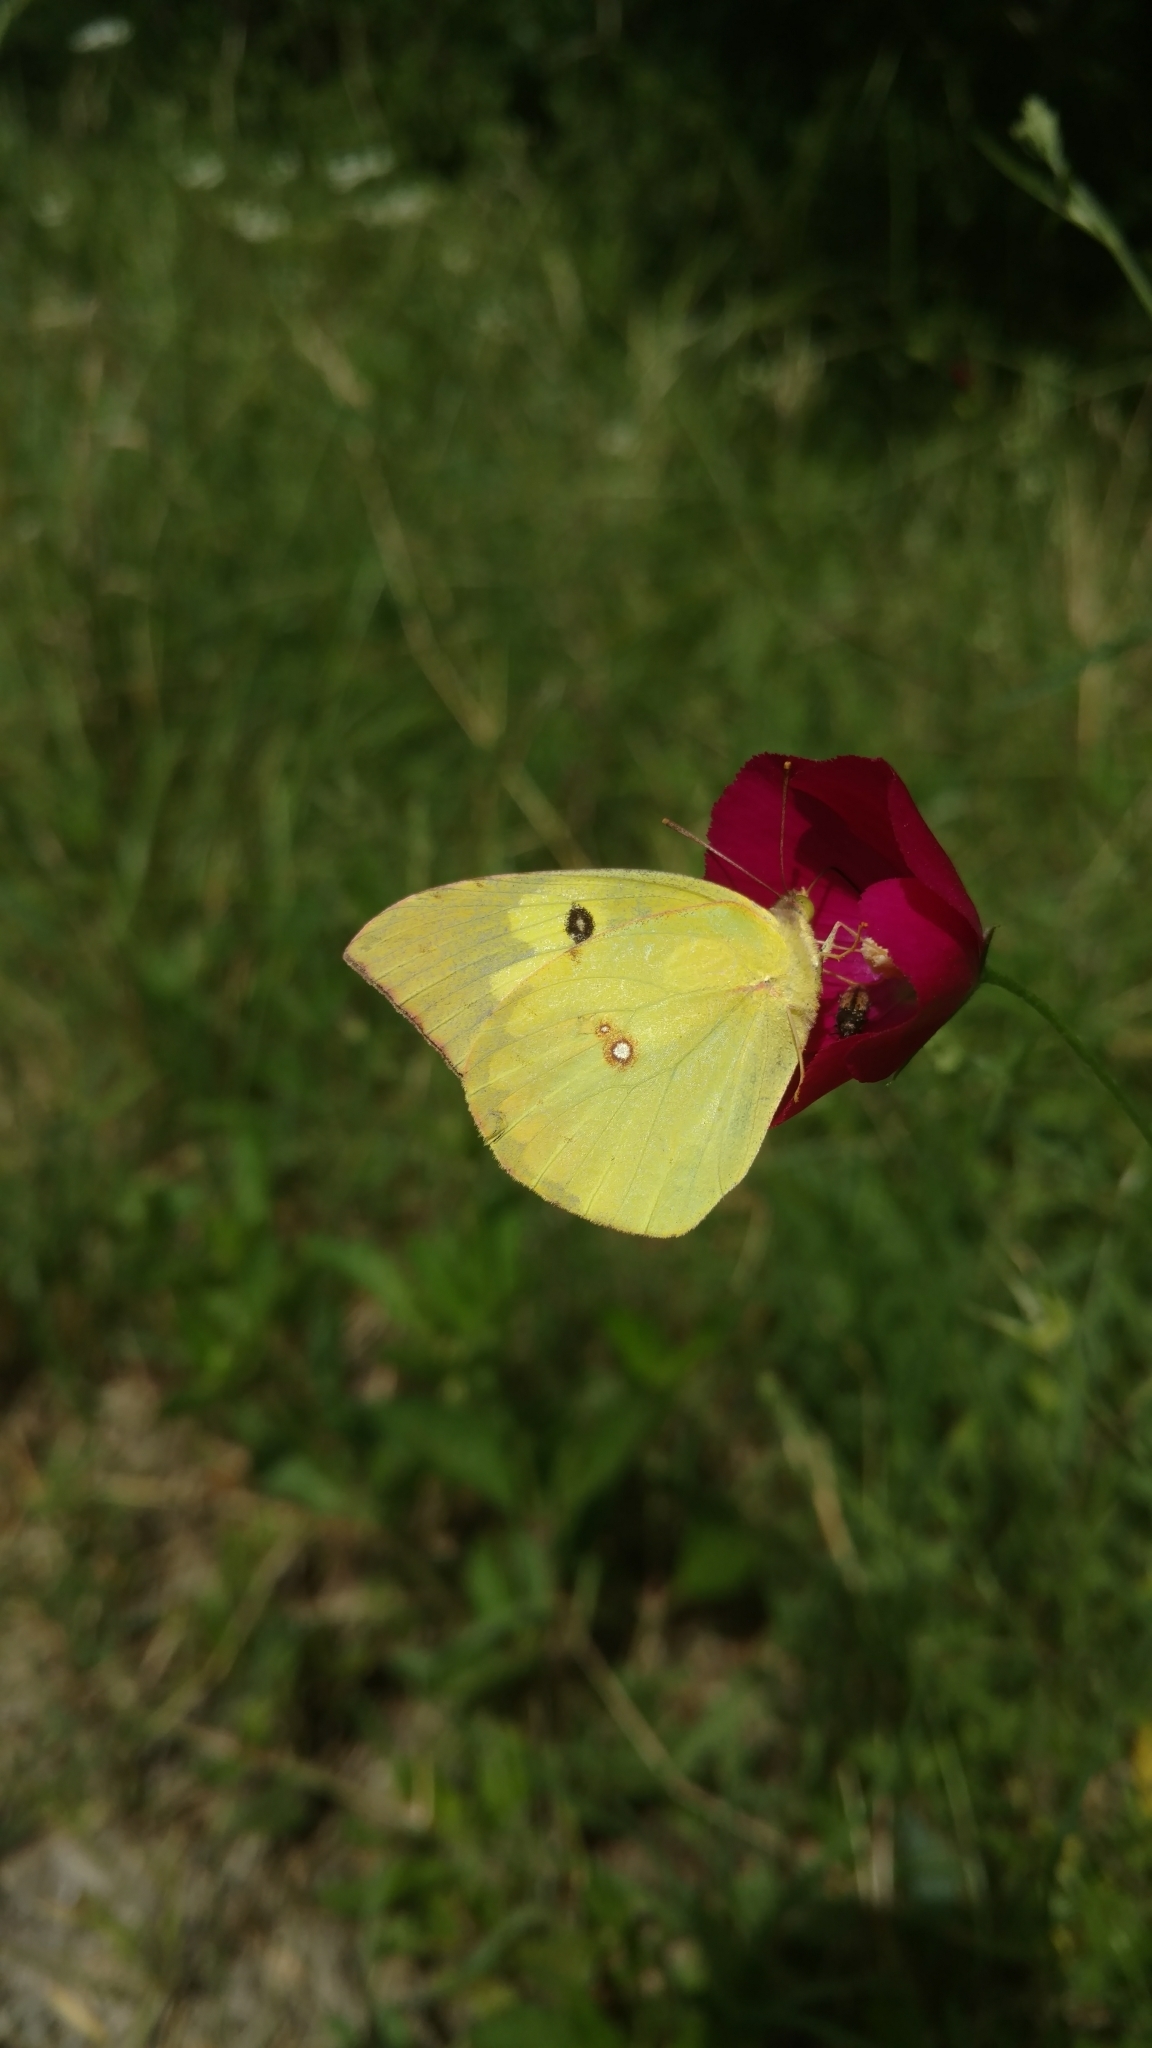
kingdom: Animalia
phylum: Arthropoda
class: Insecta
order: Lepidoptera
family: Pieridae
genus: Zerene
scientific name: Zerene cesonia
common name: Southern dogface
